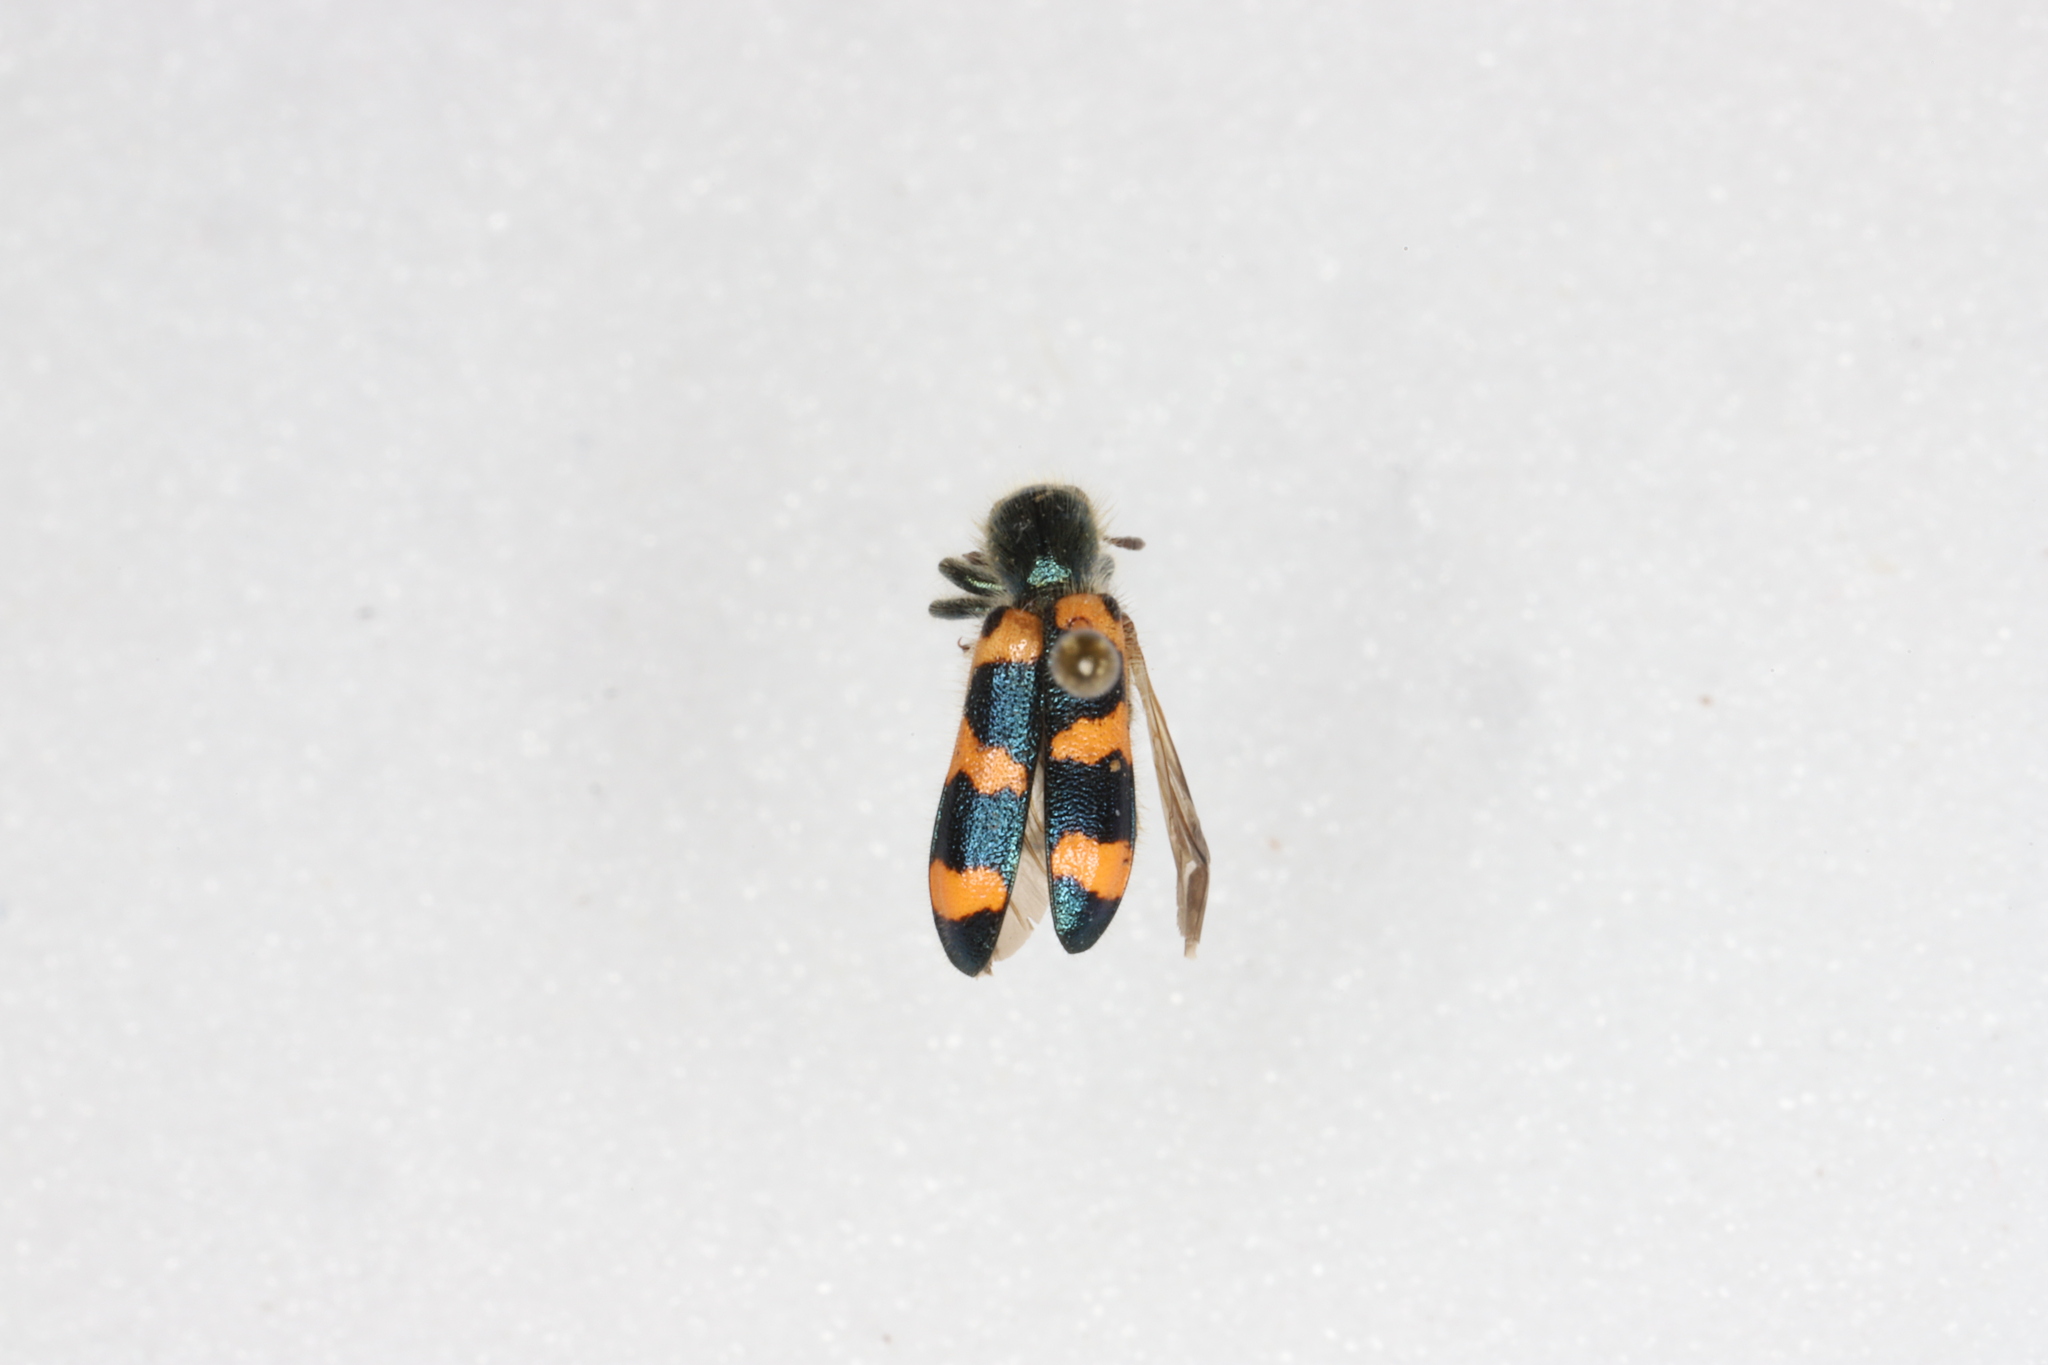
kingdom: Animalia
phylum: Arthropoda
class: Insecta
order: Coleoptera
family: Cleridae
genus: Trichodes
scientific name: Trichodes nutalli
